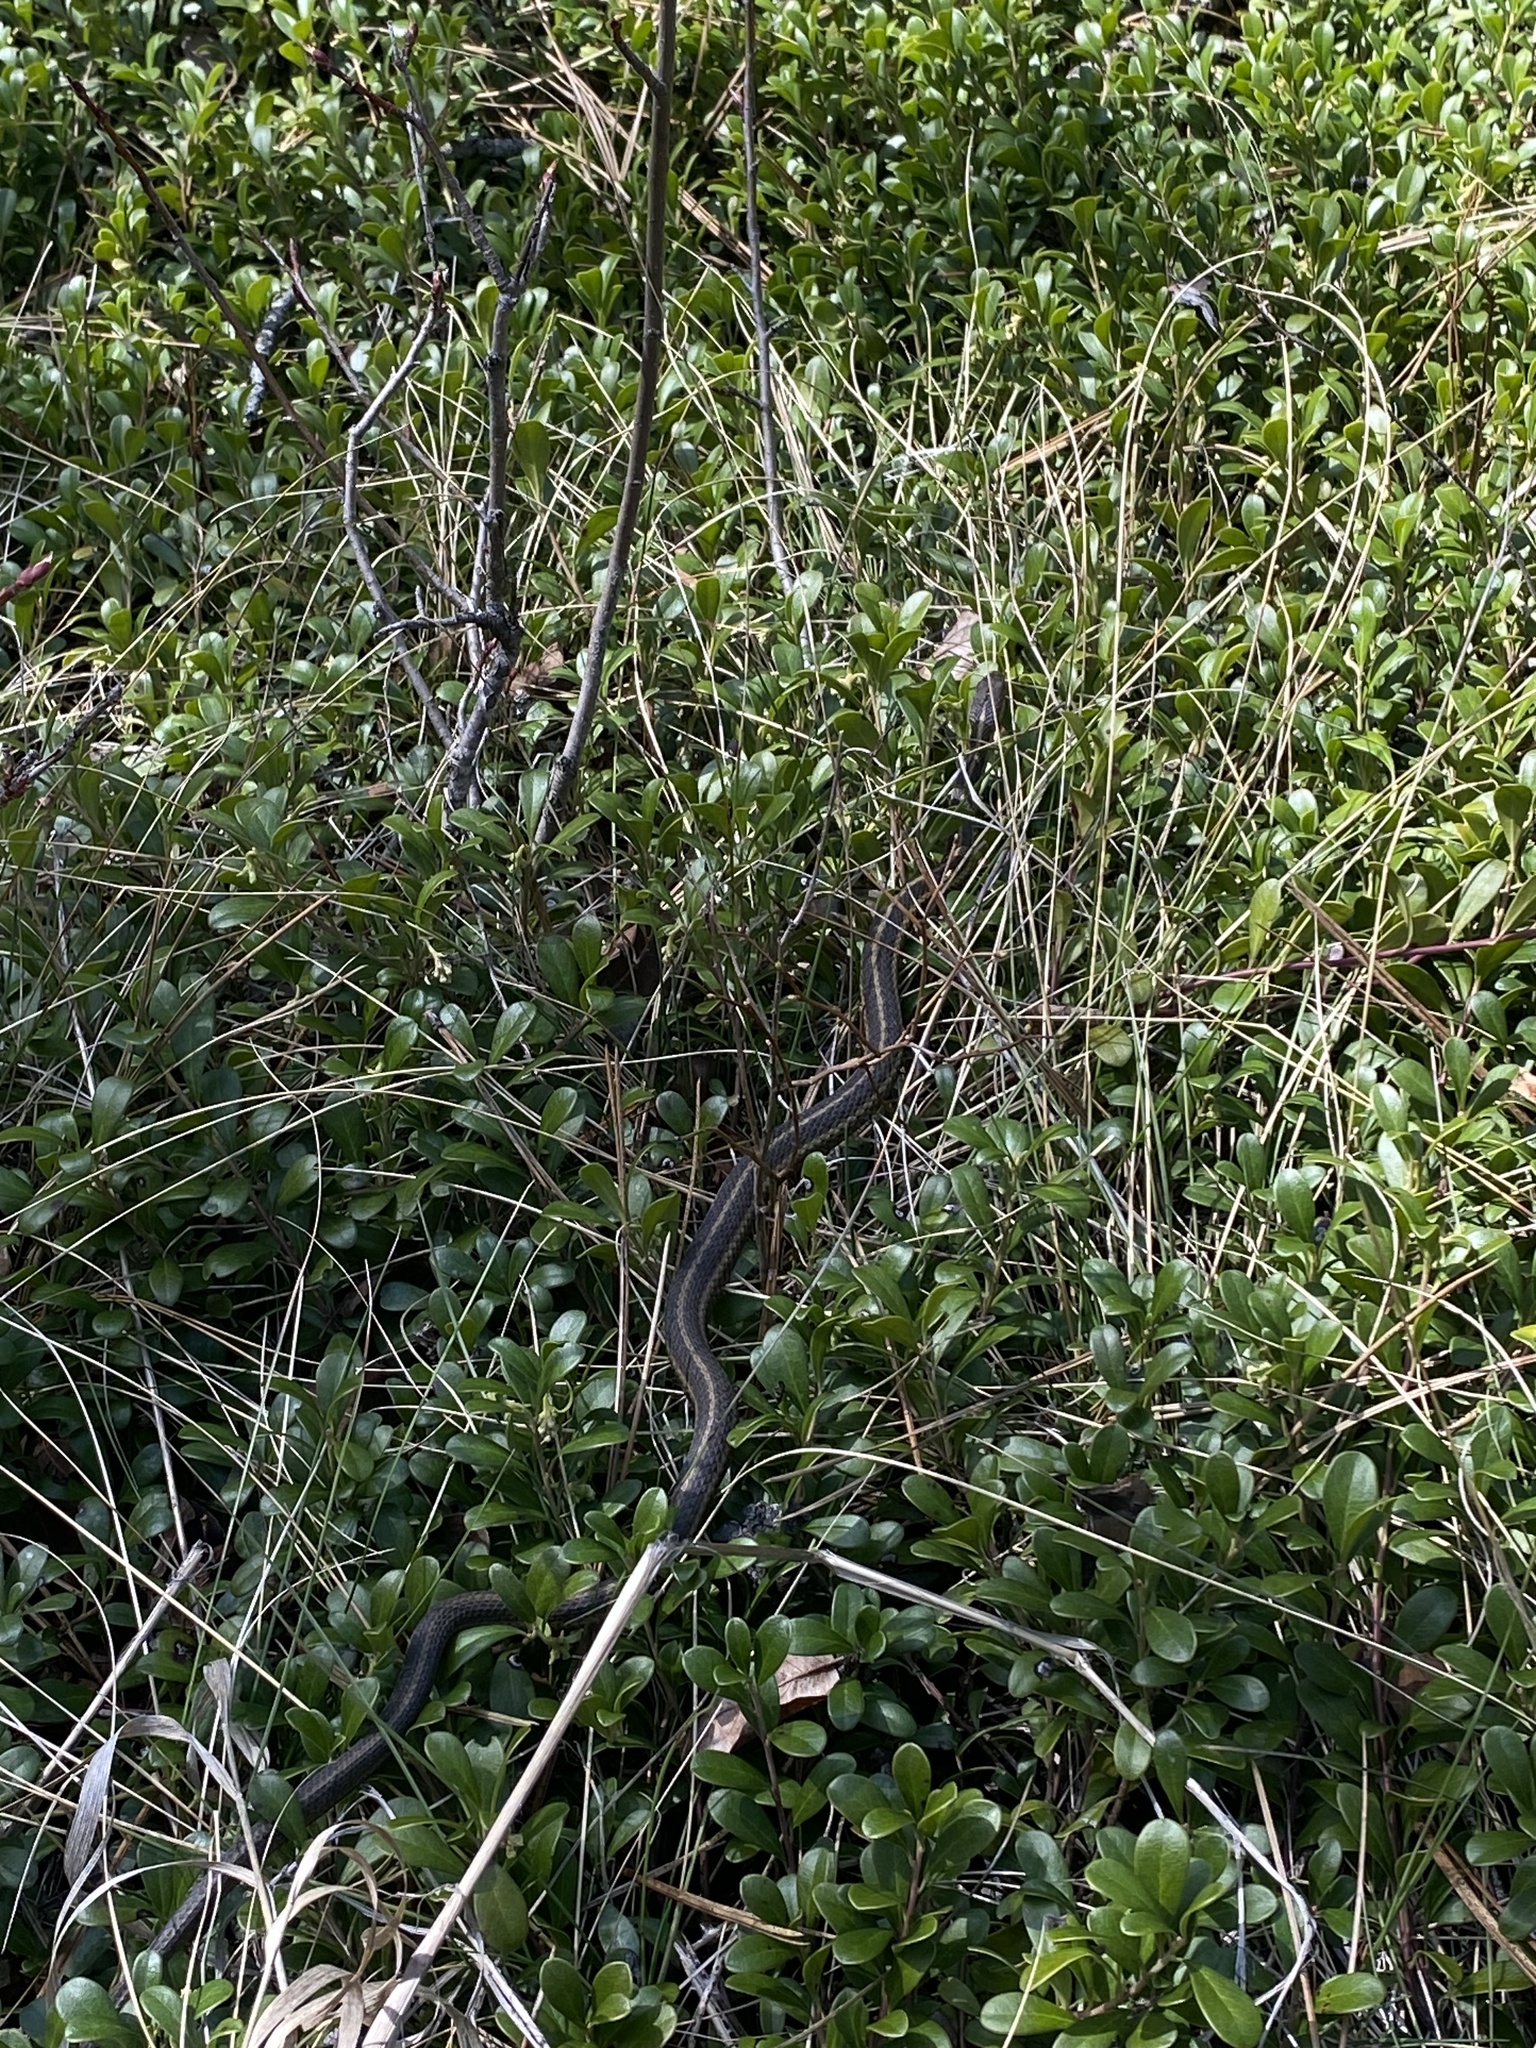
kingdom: Animalia
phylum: Chordata
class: Squamata
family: Colubridae
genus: Thamnophis
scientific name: Thamnophis elegans
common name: Western terrestrial garter snake
